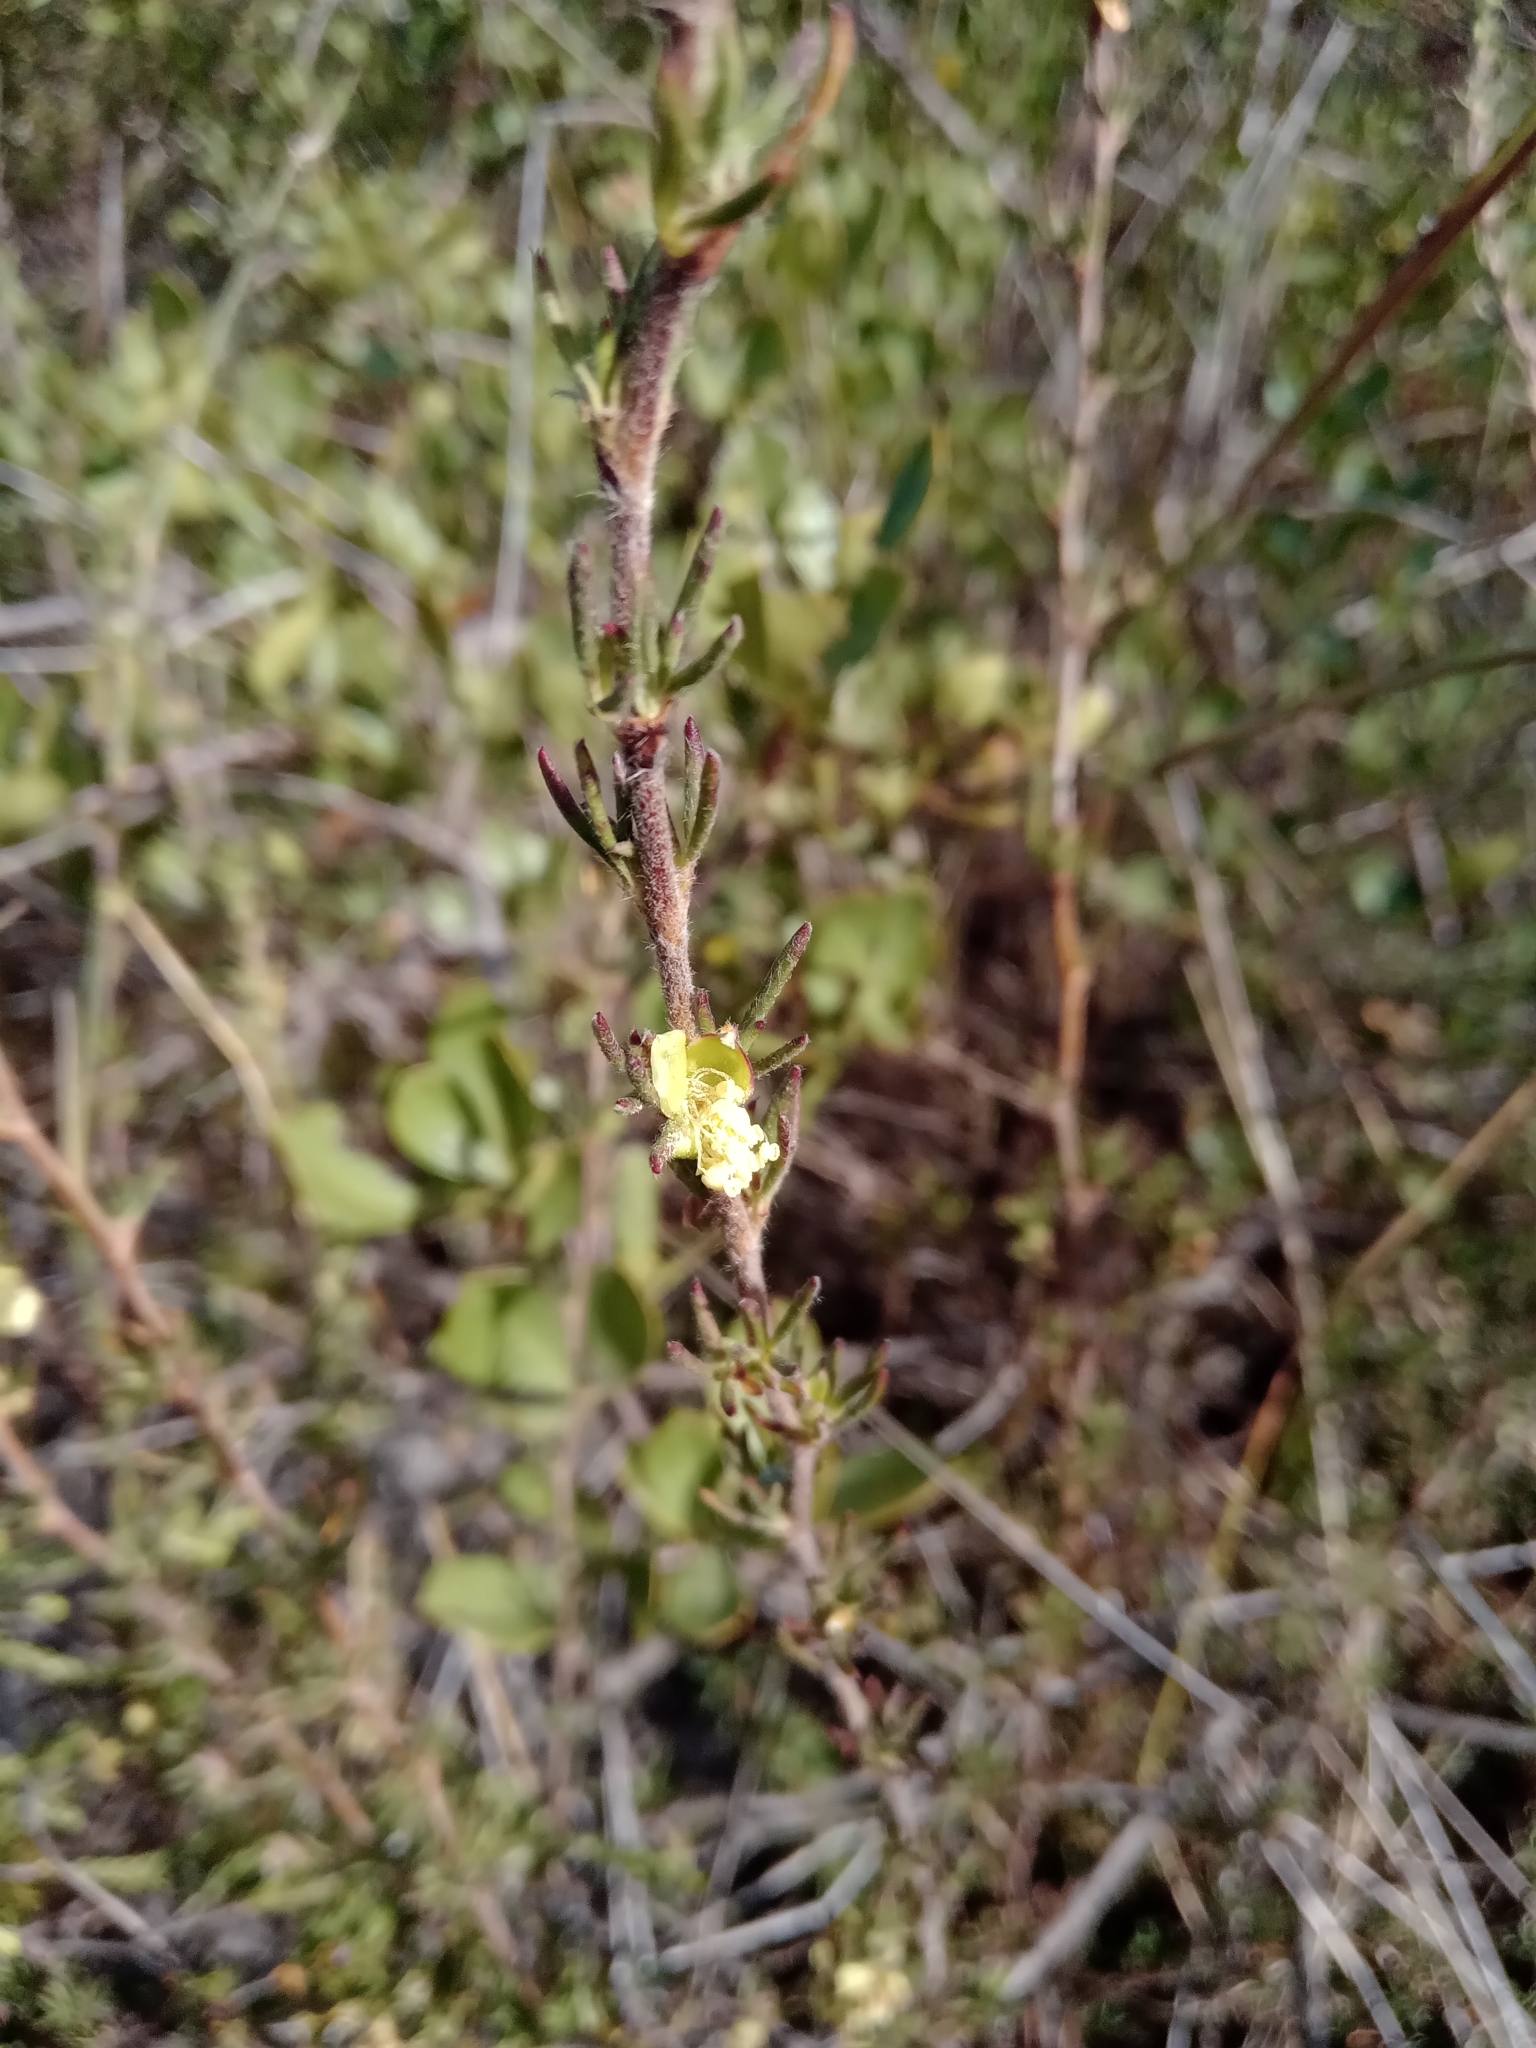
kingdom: Plantae
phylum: Tracheophyta
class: Magnoliopsida
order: Rosales
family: Rosaceae
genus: Cliffortia
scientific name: Cliffortia hirta
